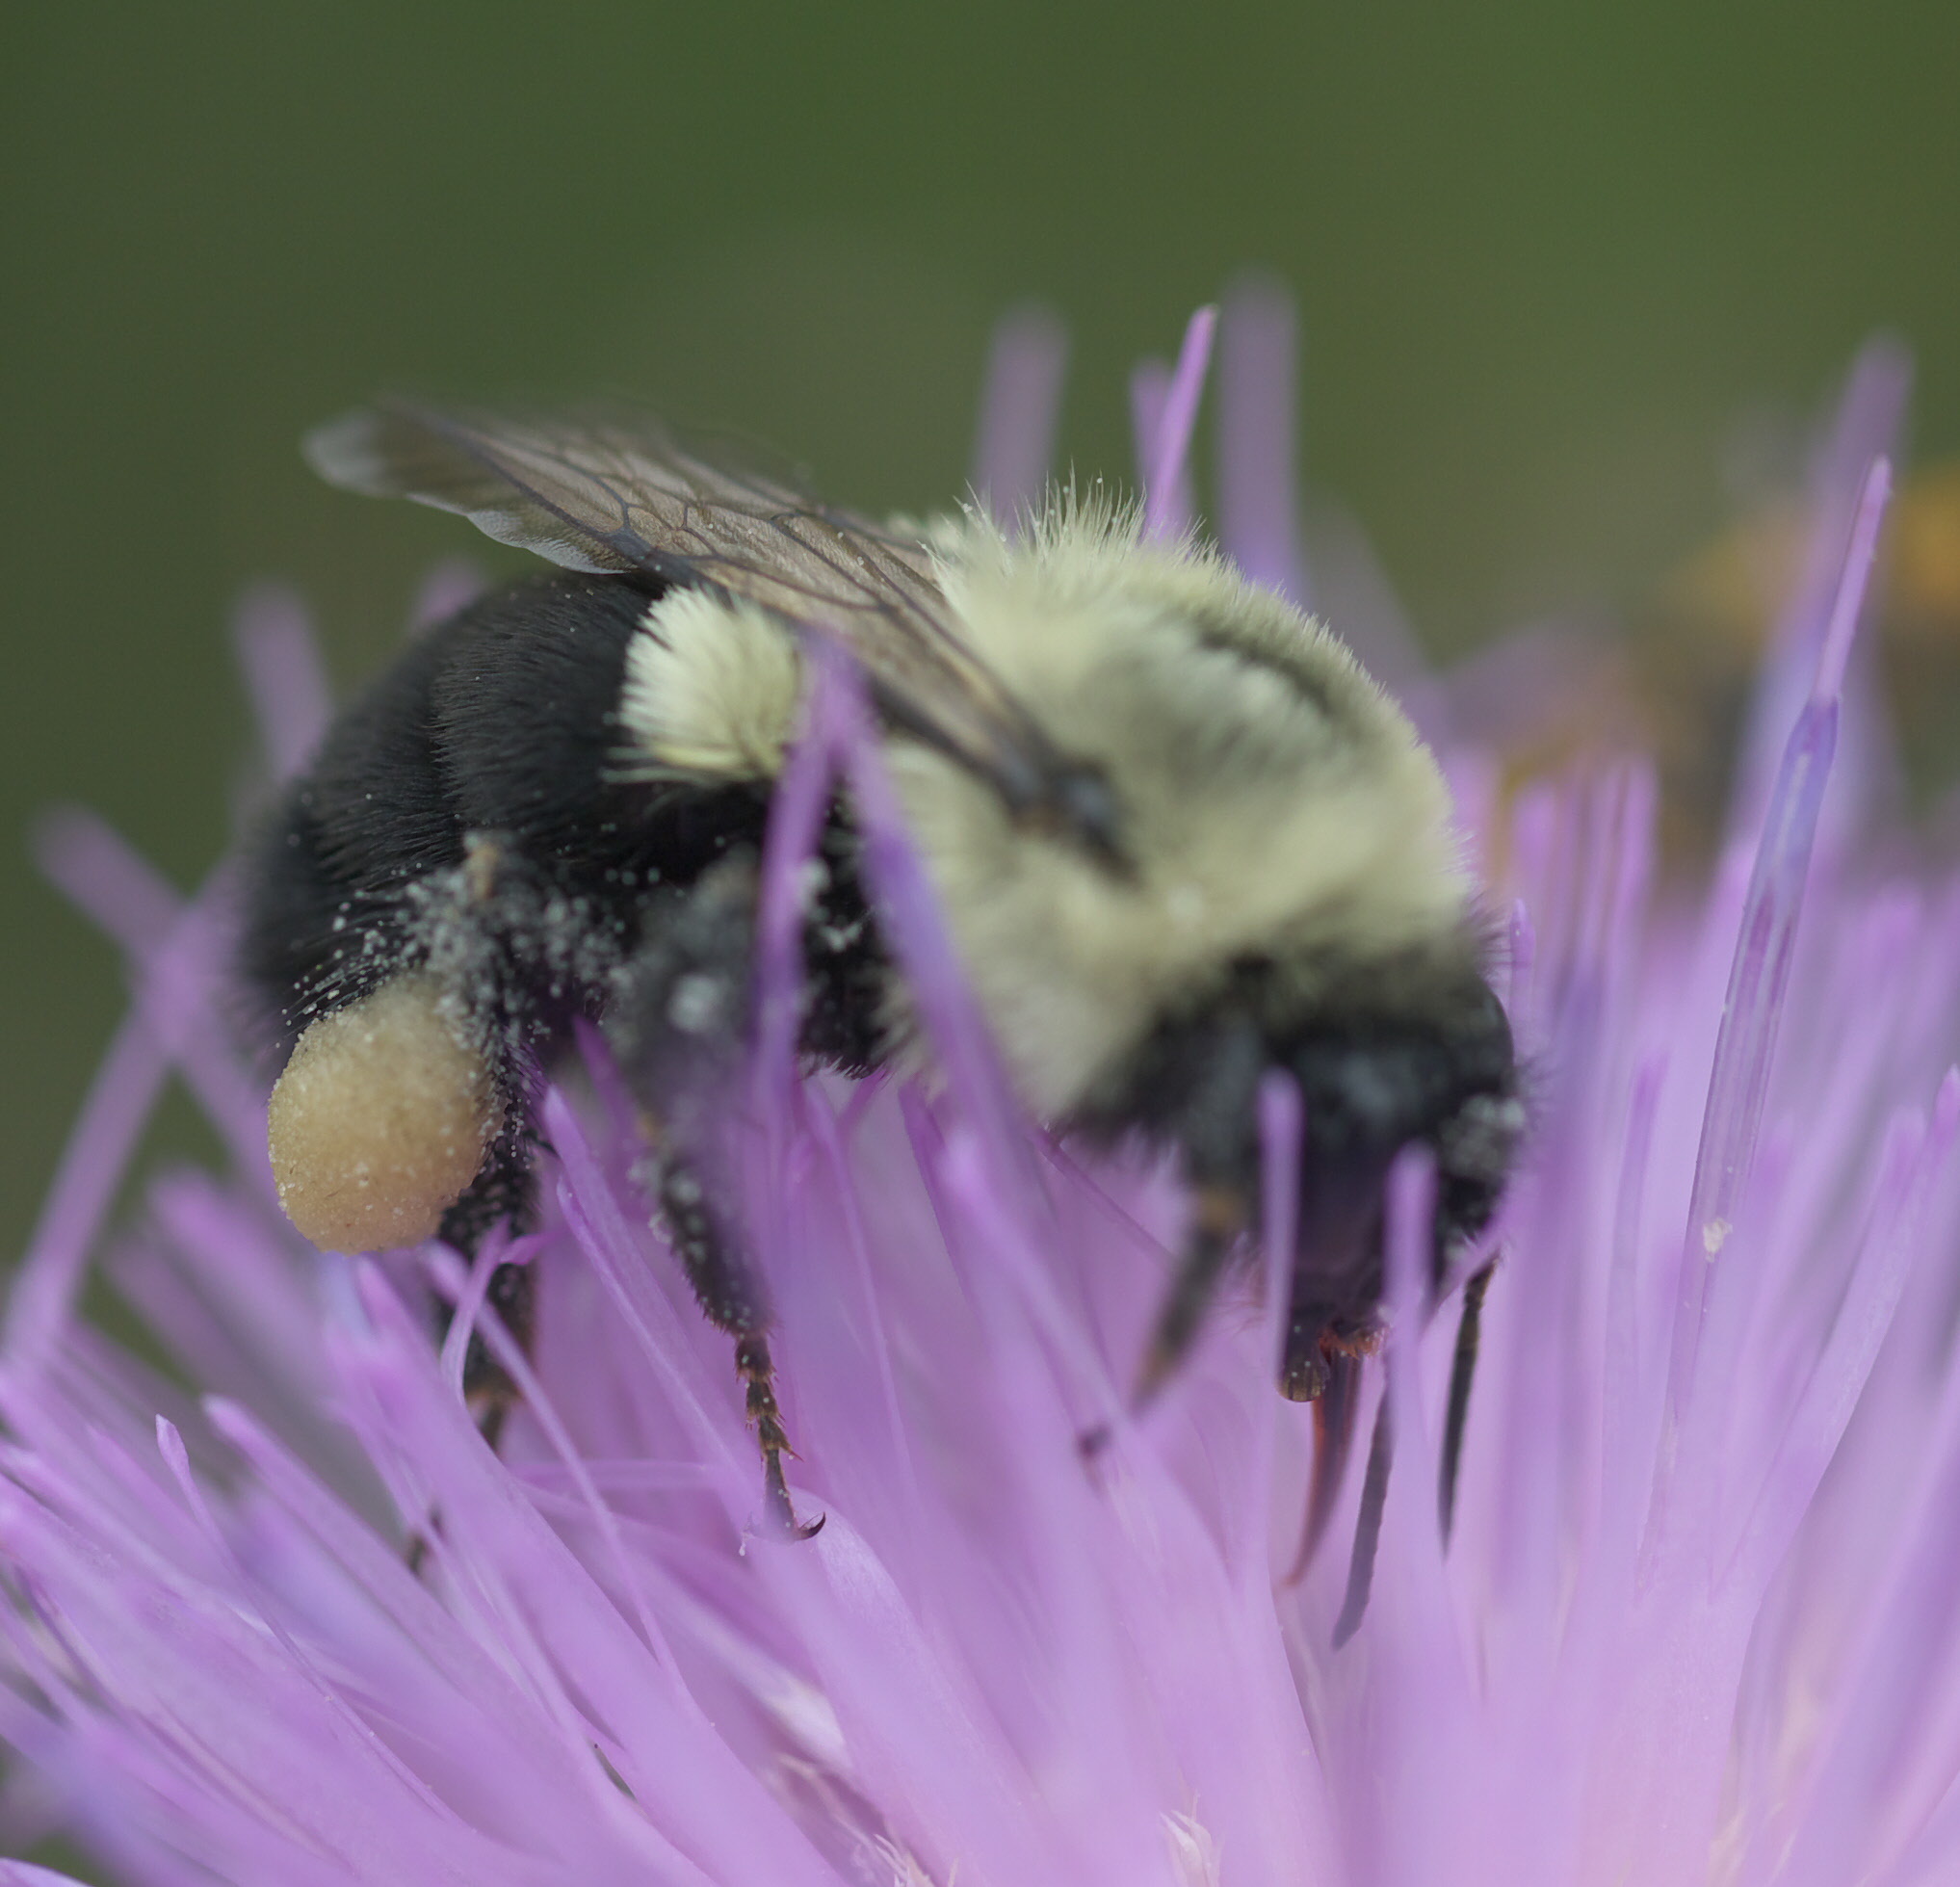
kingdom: Animalia
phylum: Arthropoda
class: Insecta
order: Hymenoptera
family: Apidae
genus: Bombus
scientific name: Bombus impatiens
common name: Common eastern bumble bee
